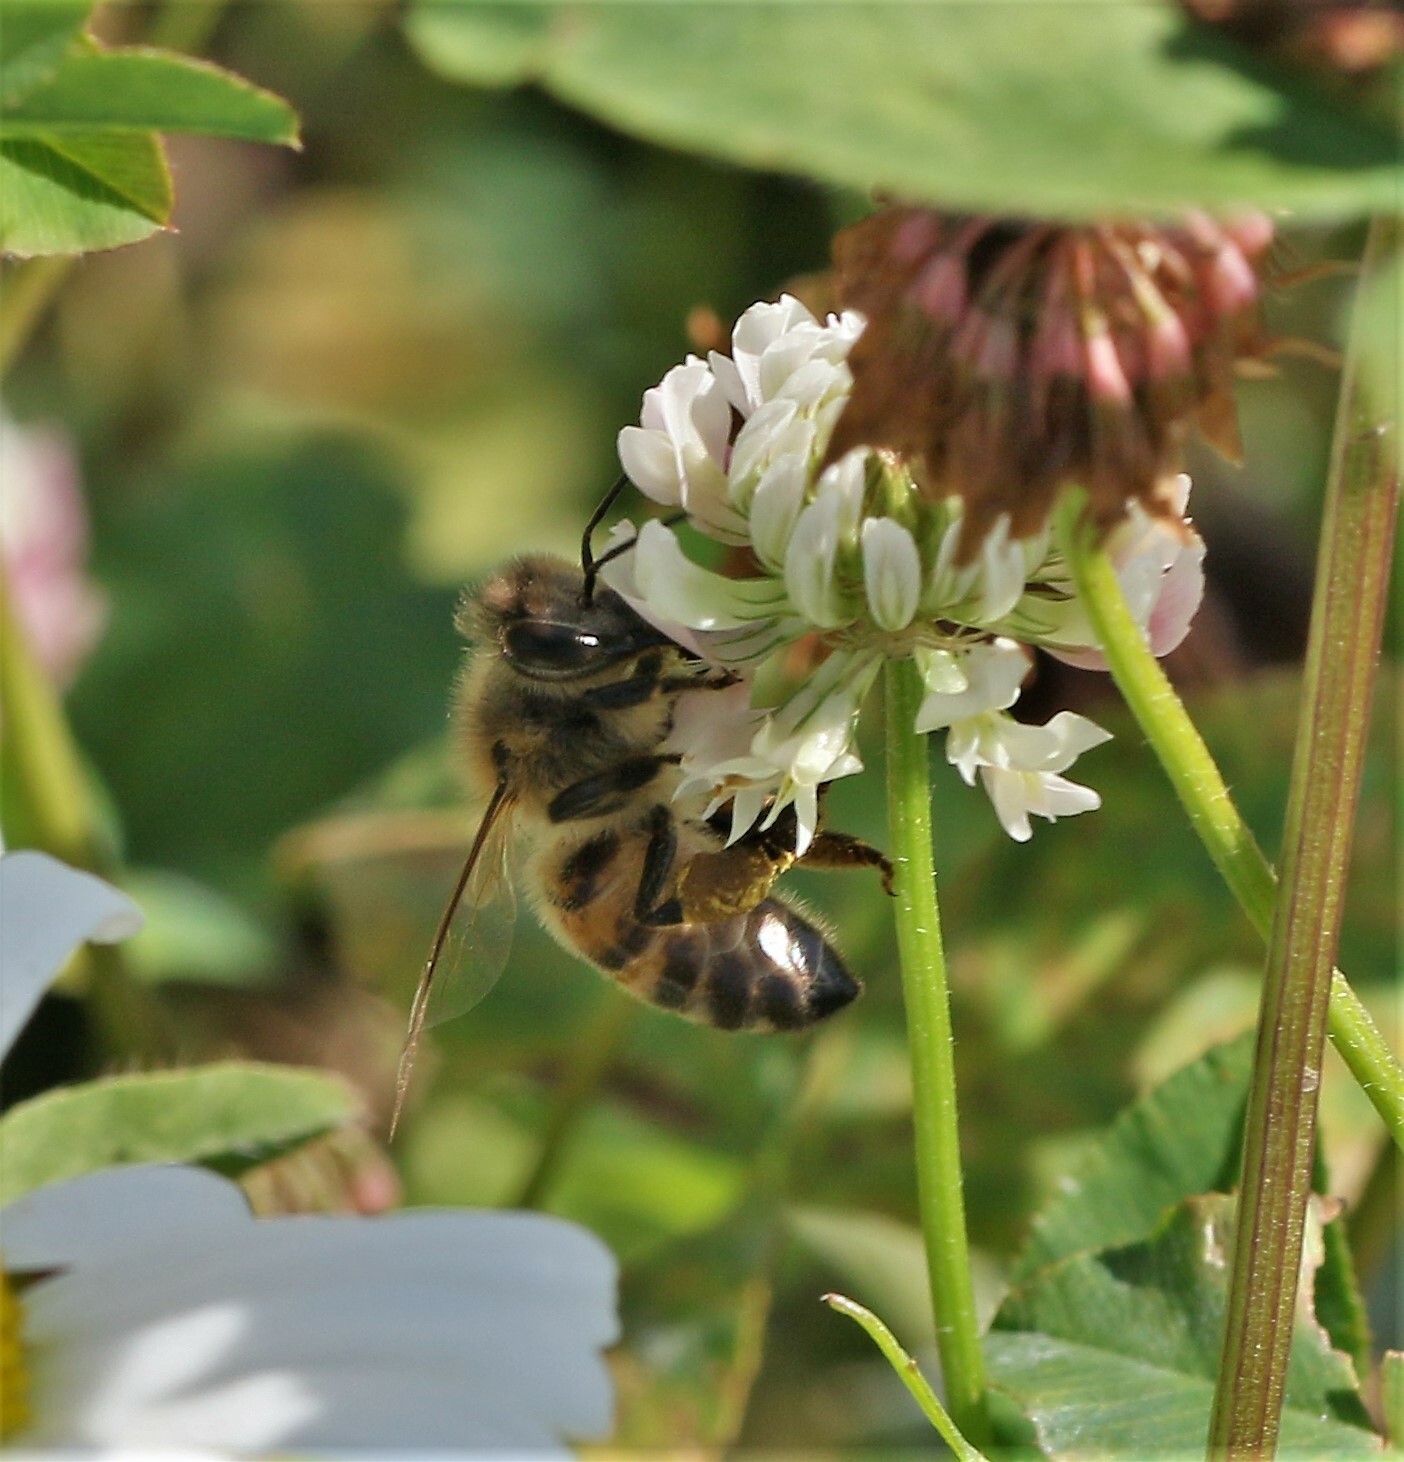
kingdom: Animalia
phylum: Arthropoda
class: Insecta
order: Hymenoptera
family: Apidae
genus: Apis
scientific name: Apis mellifera
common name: Honey bee
